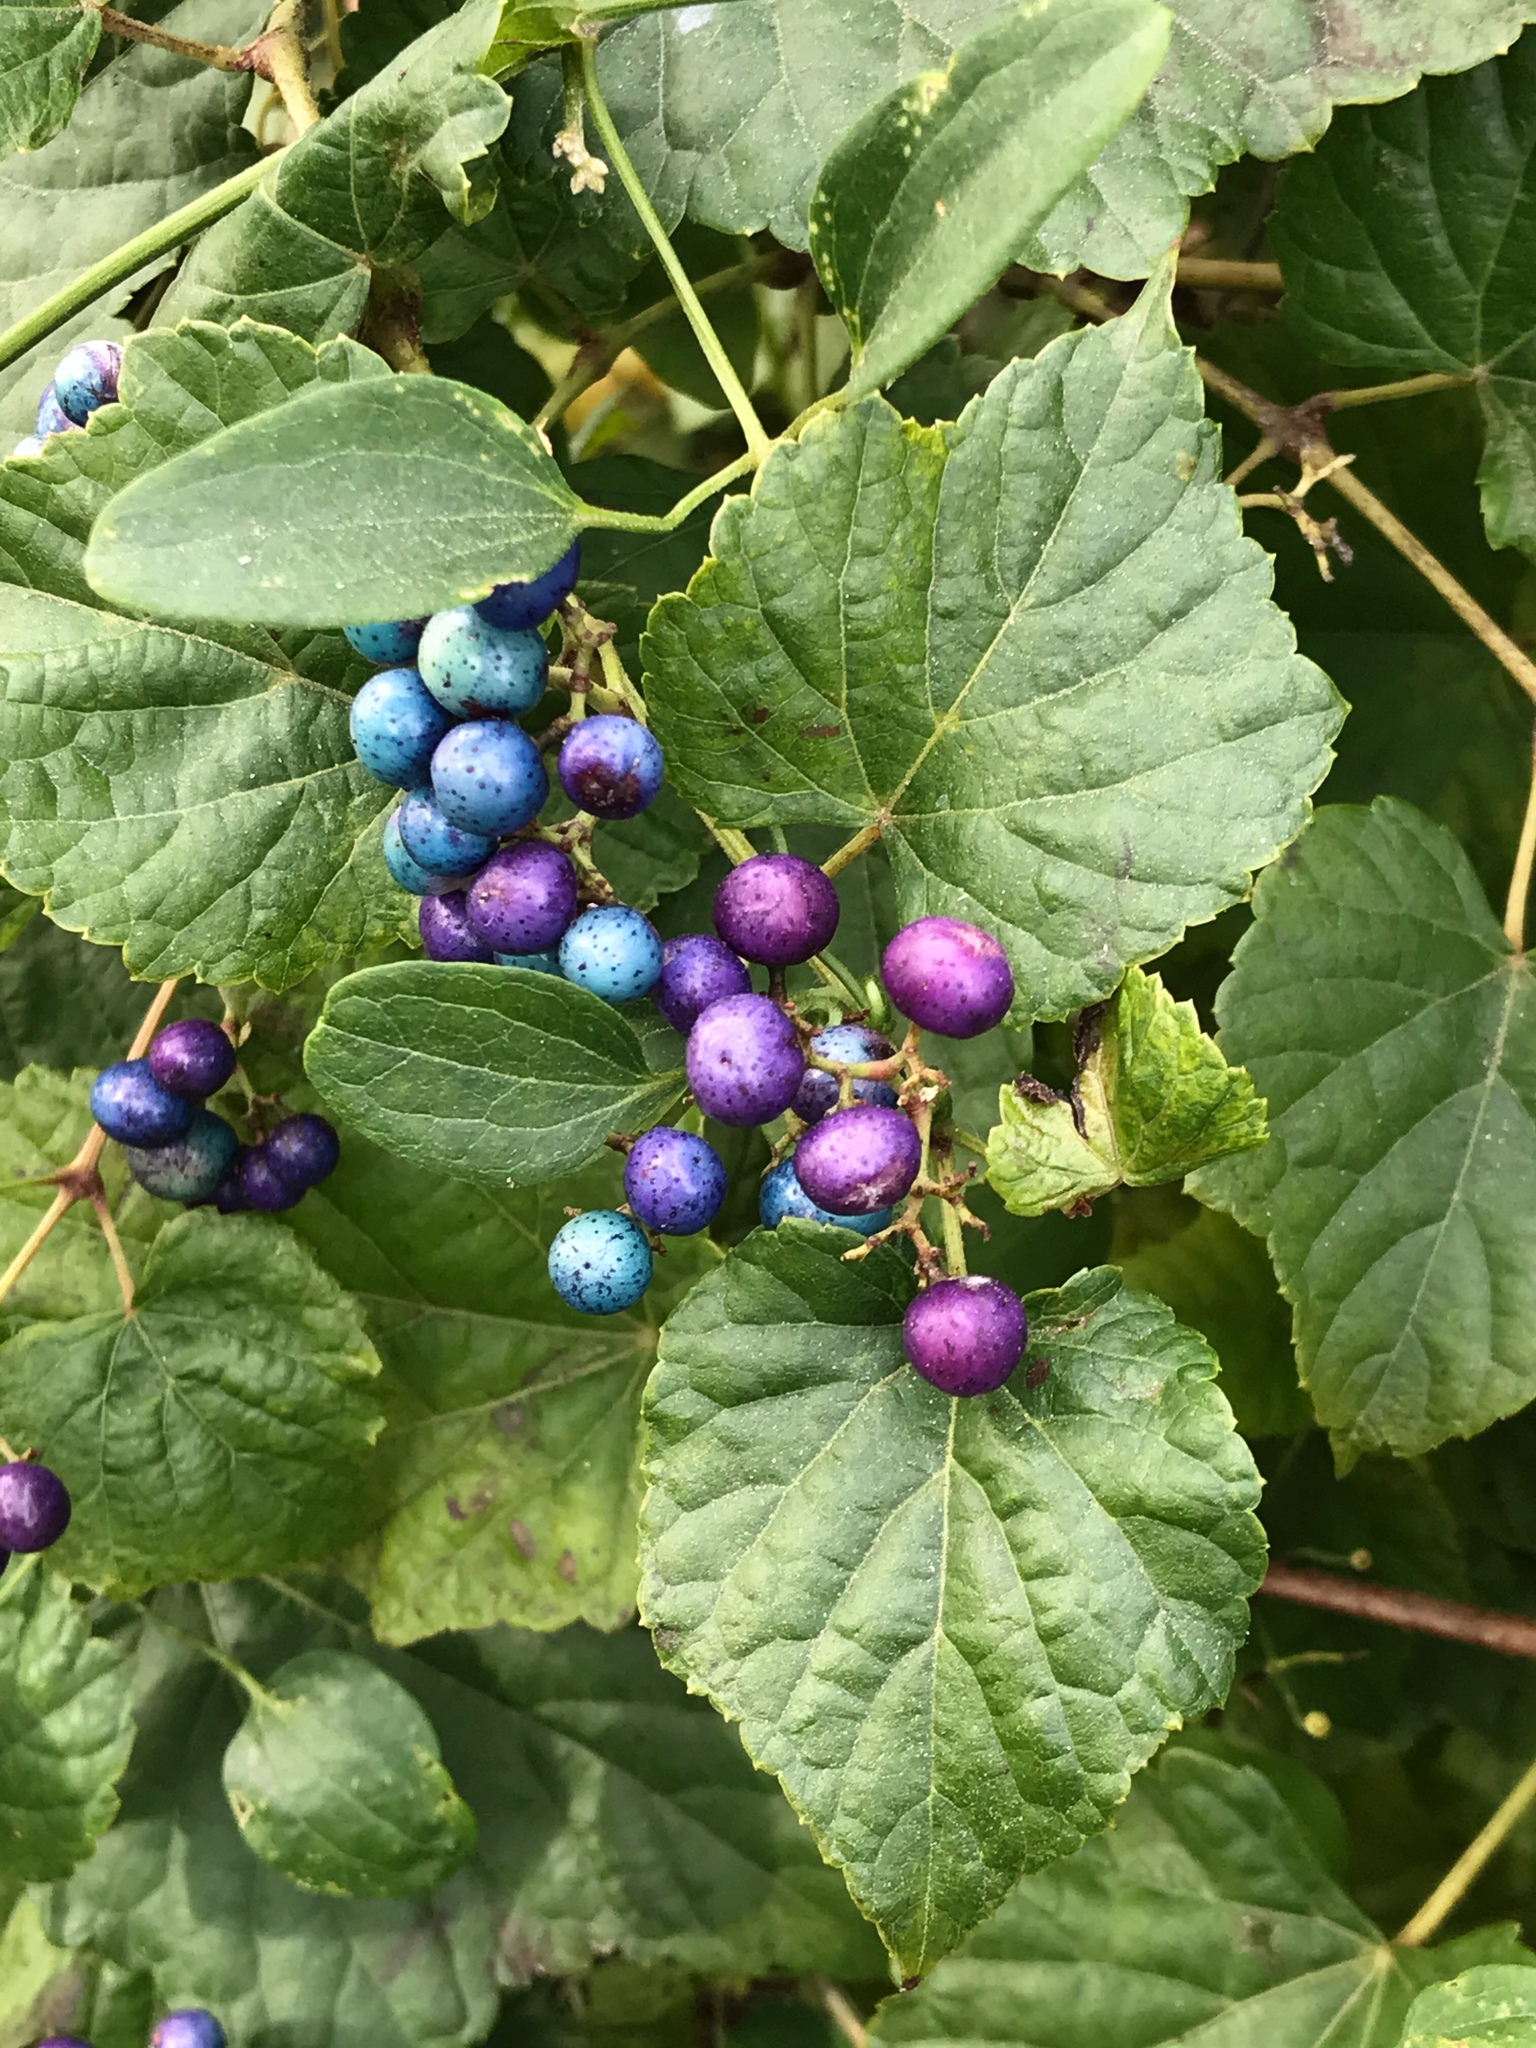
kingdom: Plantae
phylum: Tracheophyta
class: Magnoliopsida
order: Vitales
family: Vitaceae
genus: Ampelopsis
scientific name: Ampelopsis glandulosa
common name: Amur peppervine
